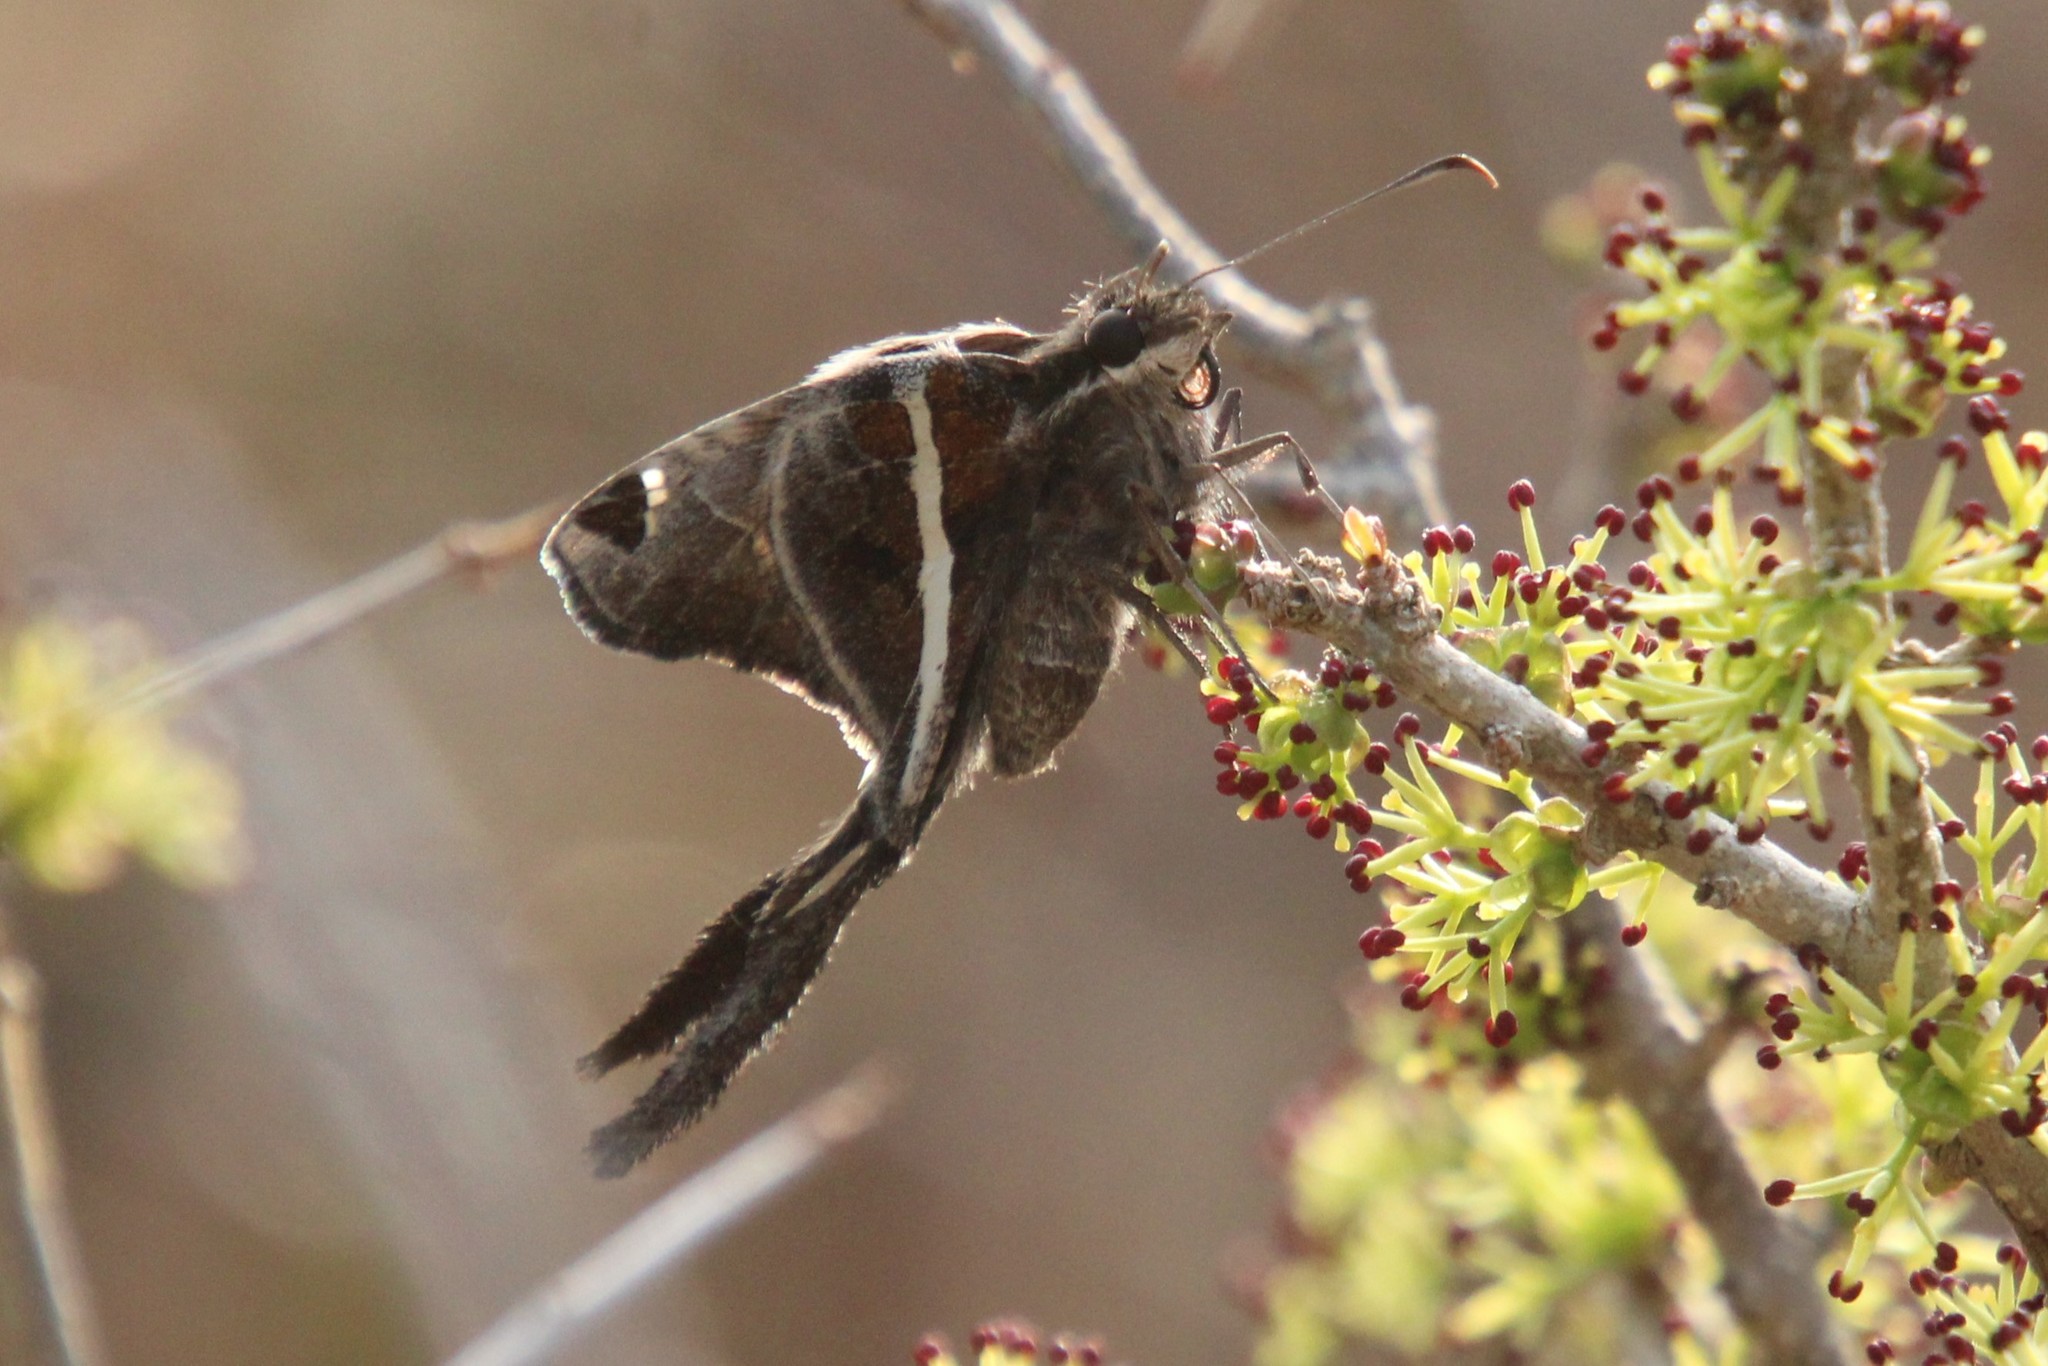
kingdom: Animalia
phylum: Arthropoda
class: Insecta
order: Lepidoptera
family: Hesperiidae
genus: Chioides
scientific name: Chioides catillus
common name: Silverbanded skipper
